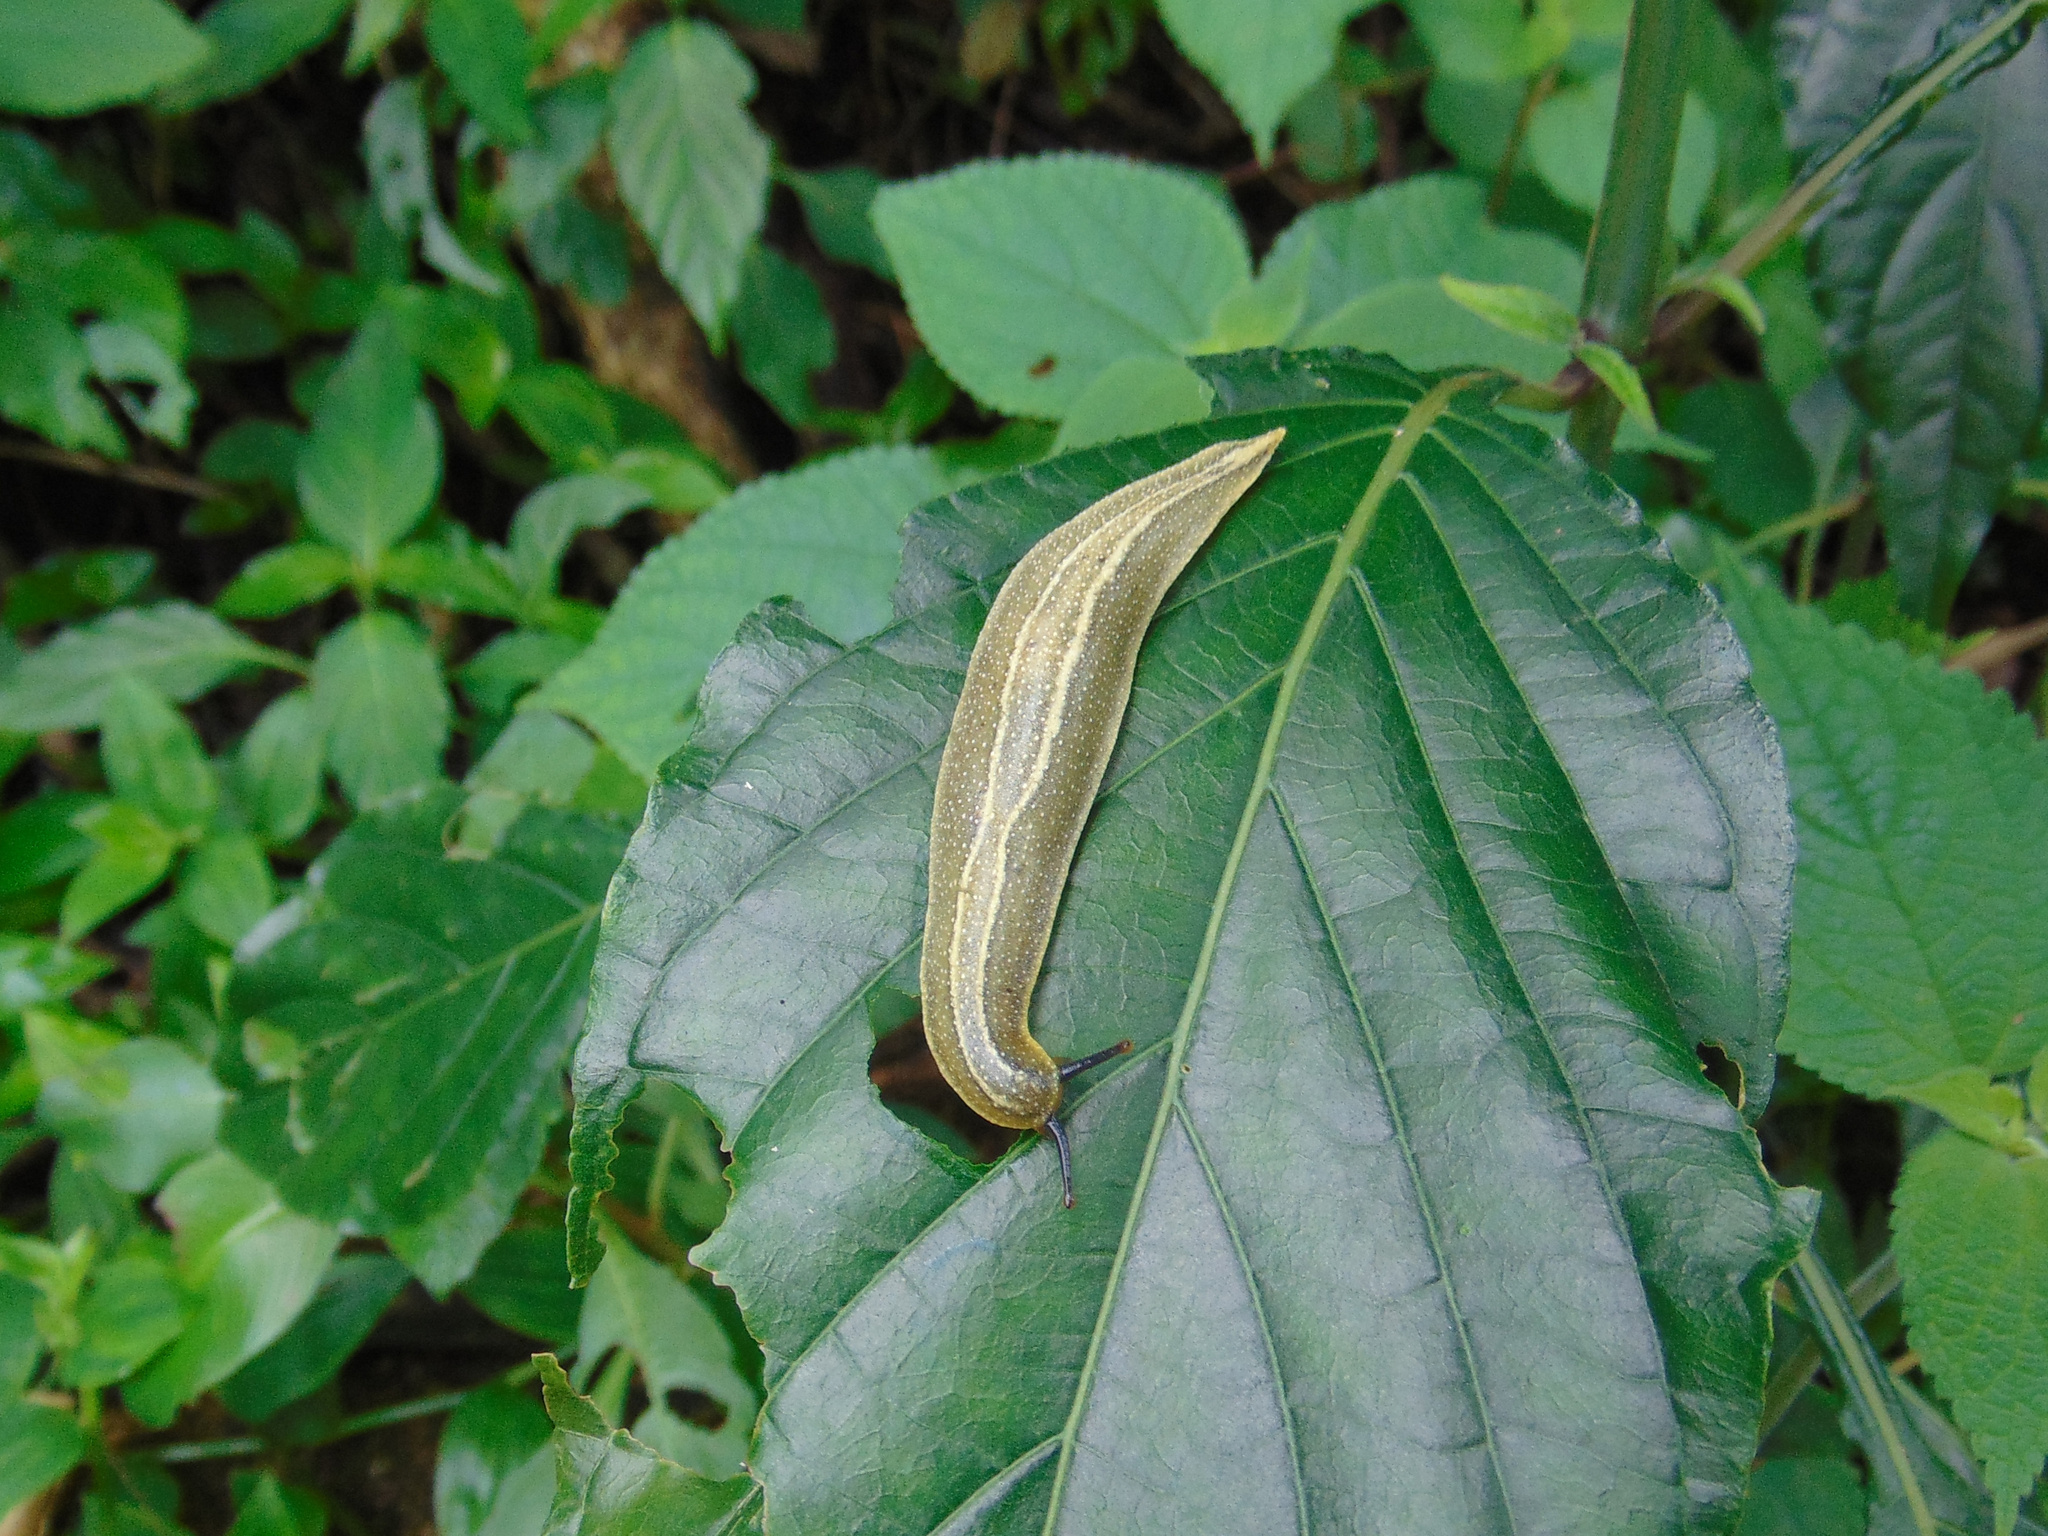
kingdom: Animalia
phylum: Mollusca
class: Gastropoda
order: Systellommatophora
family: Veronicellidae
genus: Vaginulus
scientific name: Vaginulus taunaisii
